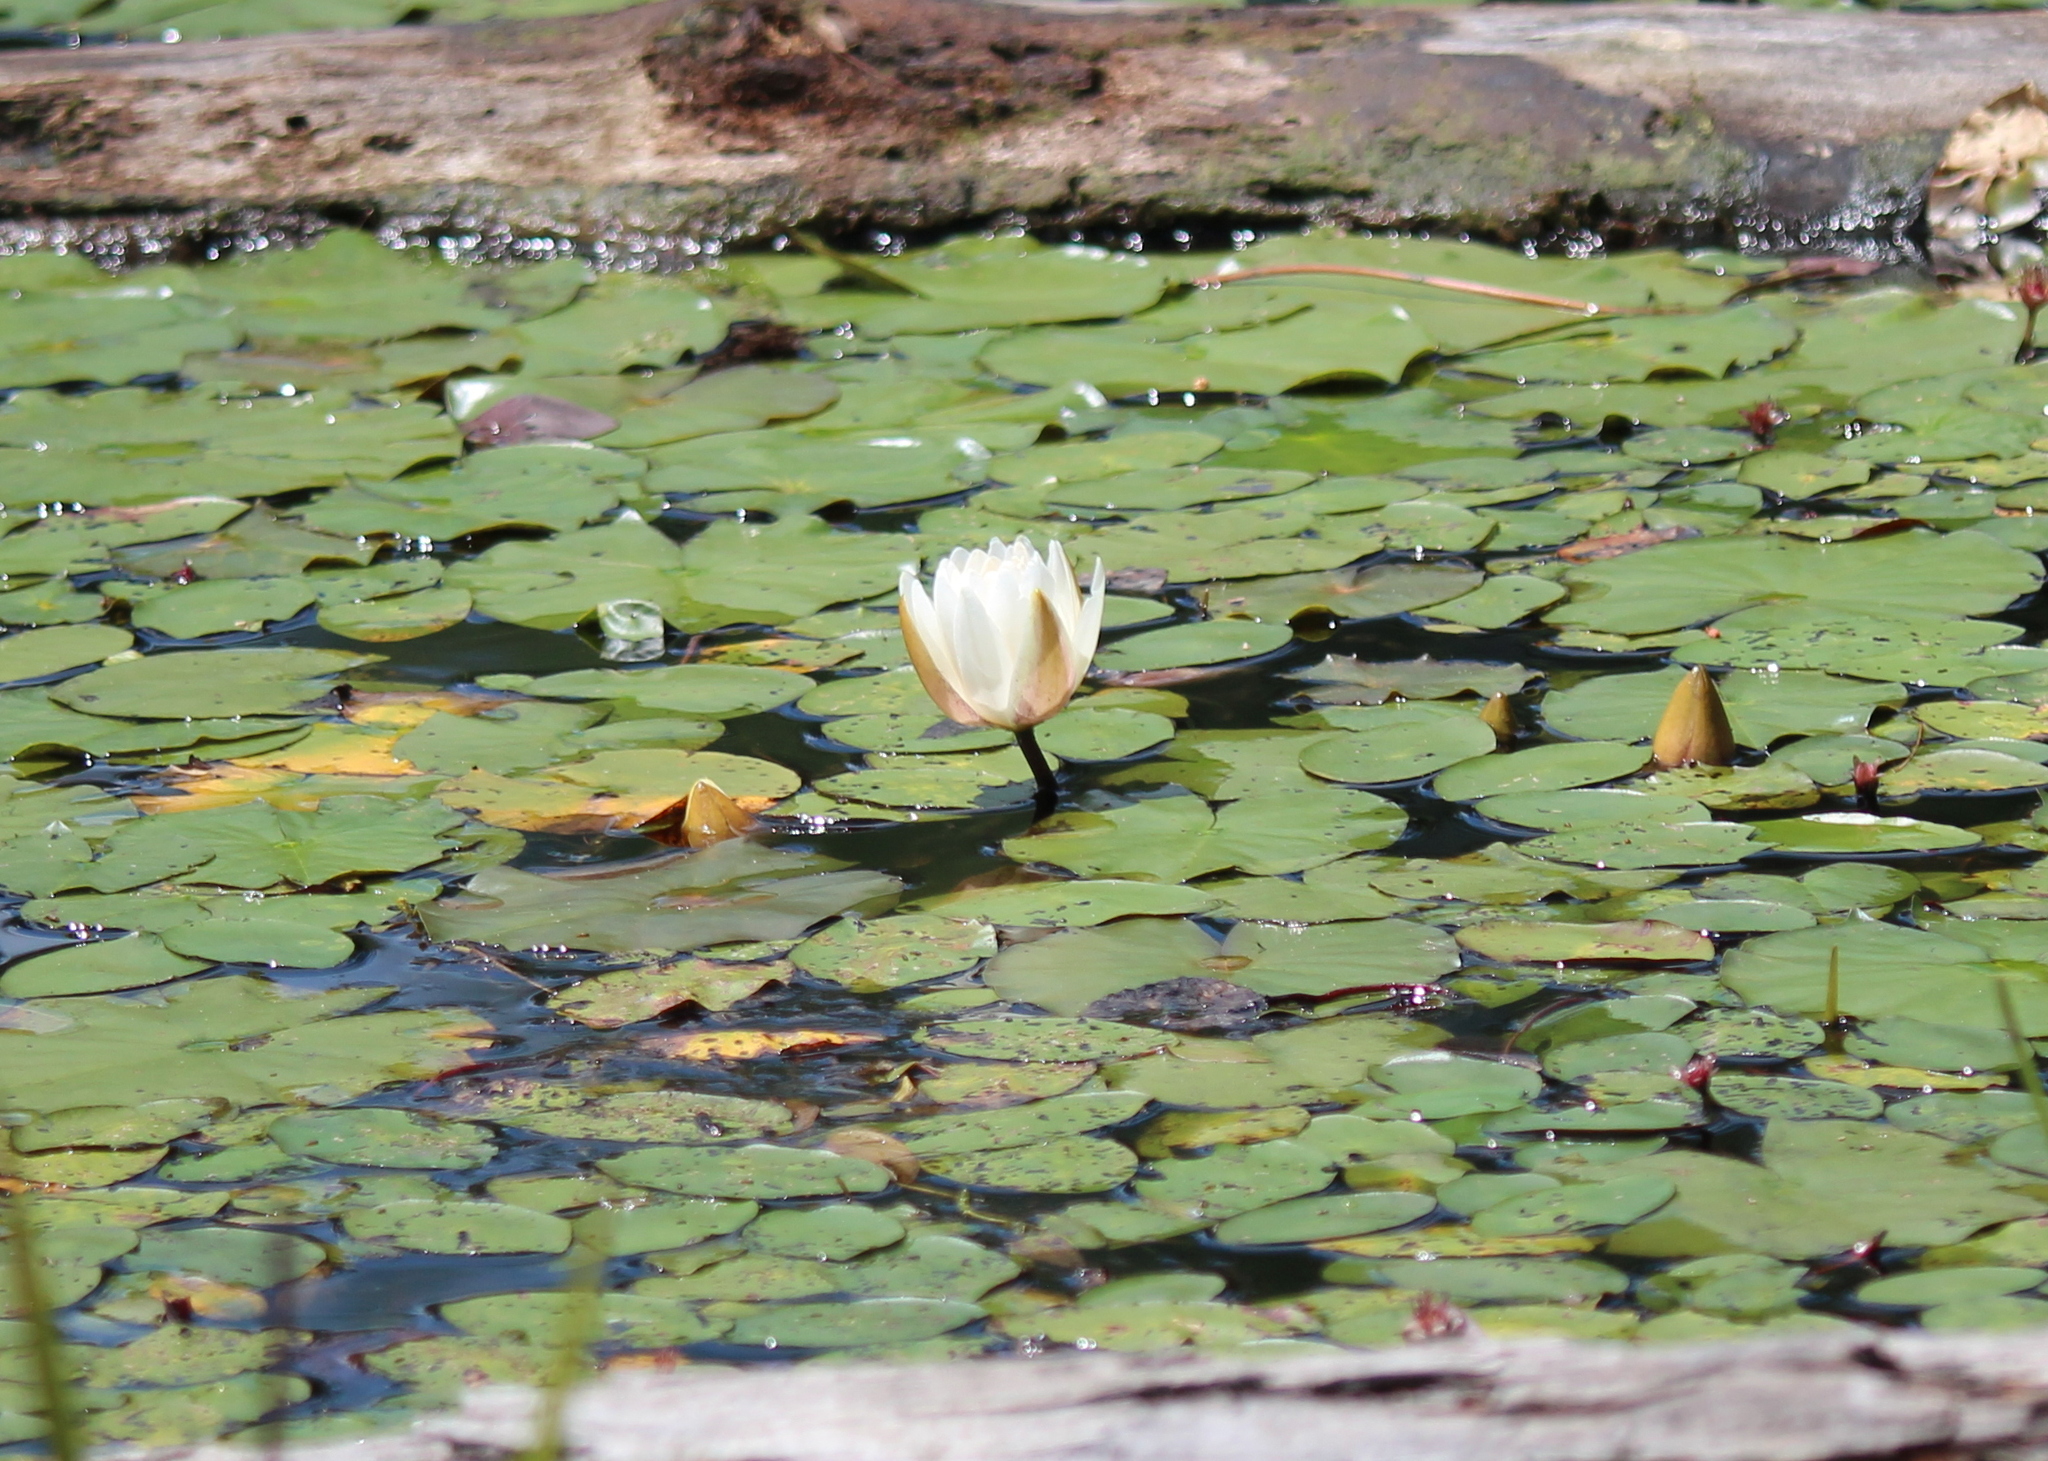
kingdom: Plantae
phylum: Tracheophyta
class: Magnoliopsida
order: Nymphaeales
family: Nymphaeaceae
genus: Nymphaea
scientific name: Nymphaea odorata
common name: Fragrant water-lily
